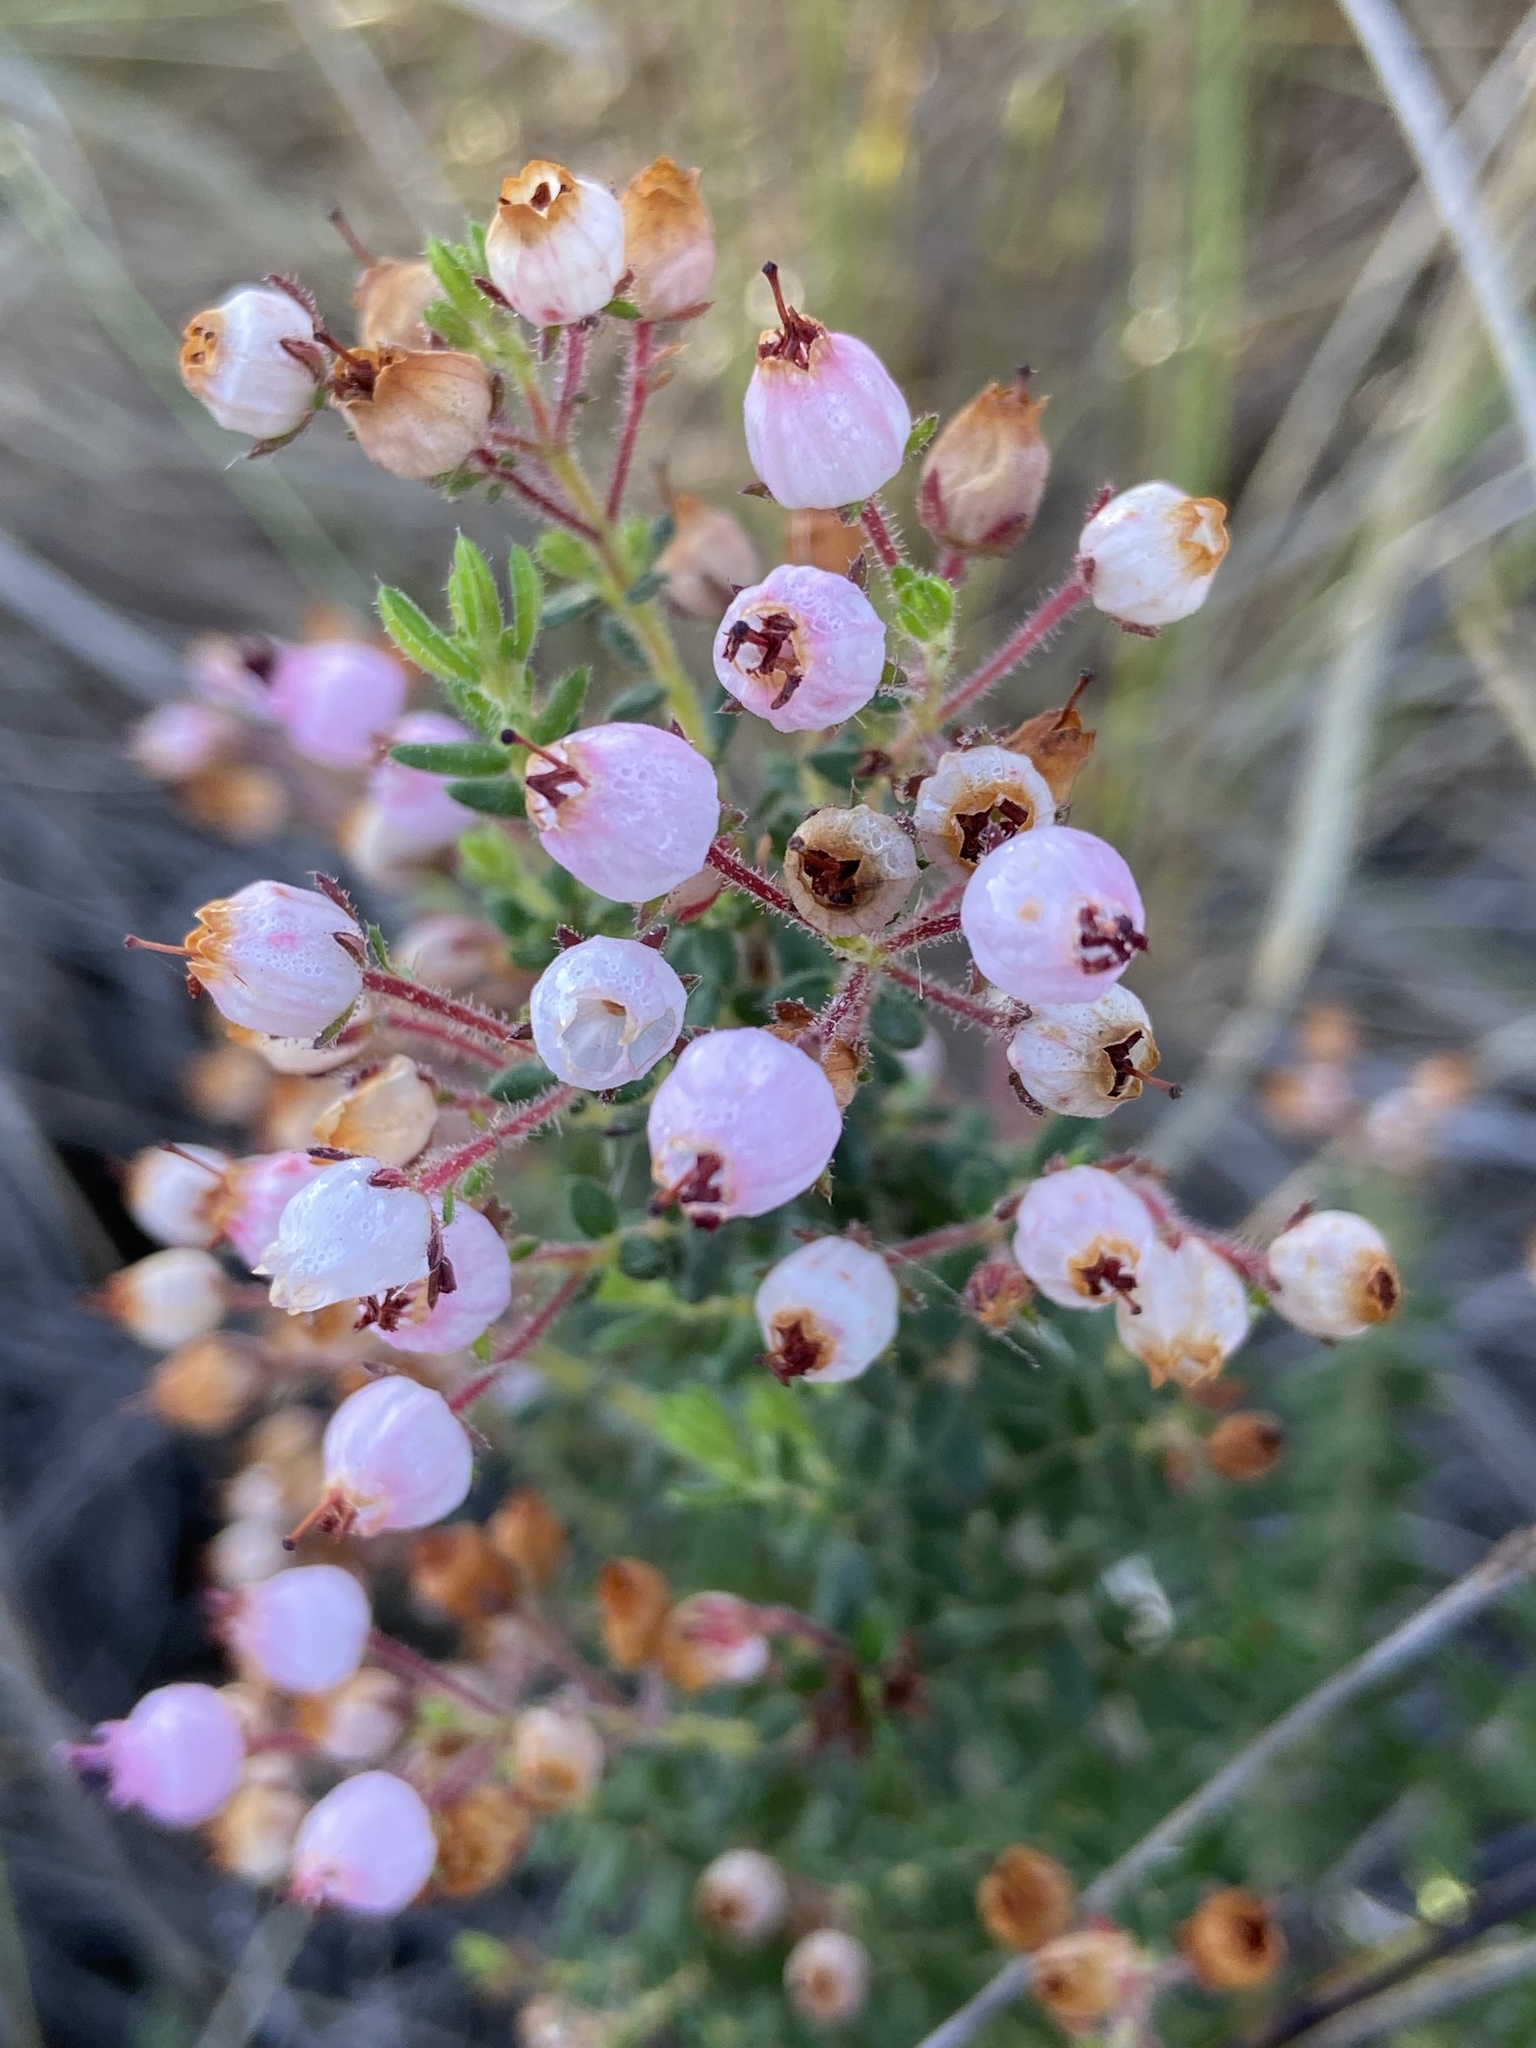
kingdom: Plantae
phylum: Tracheophyta
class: Magnoliopsida
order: Ericales
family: Ericaceae
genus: Erica
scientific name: Erica hirta
